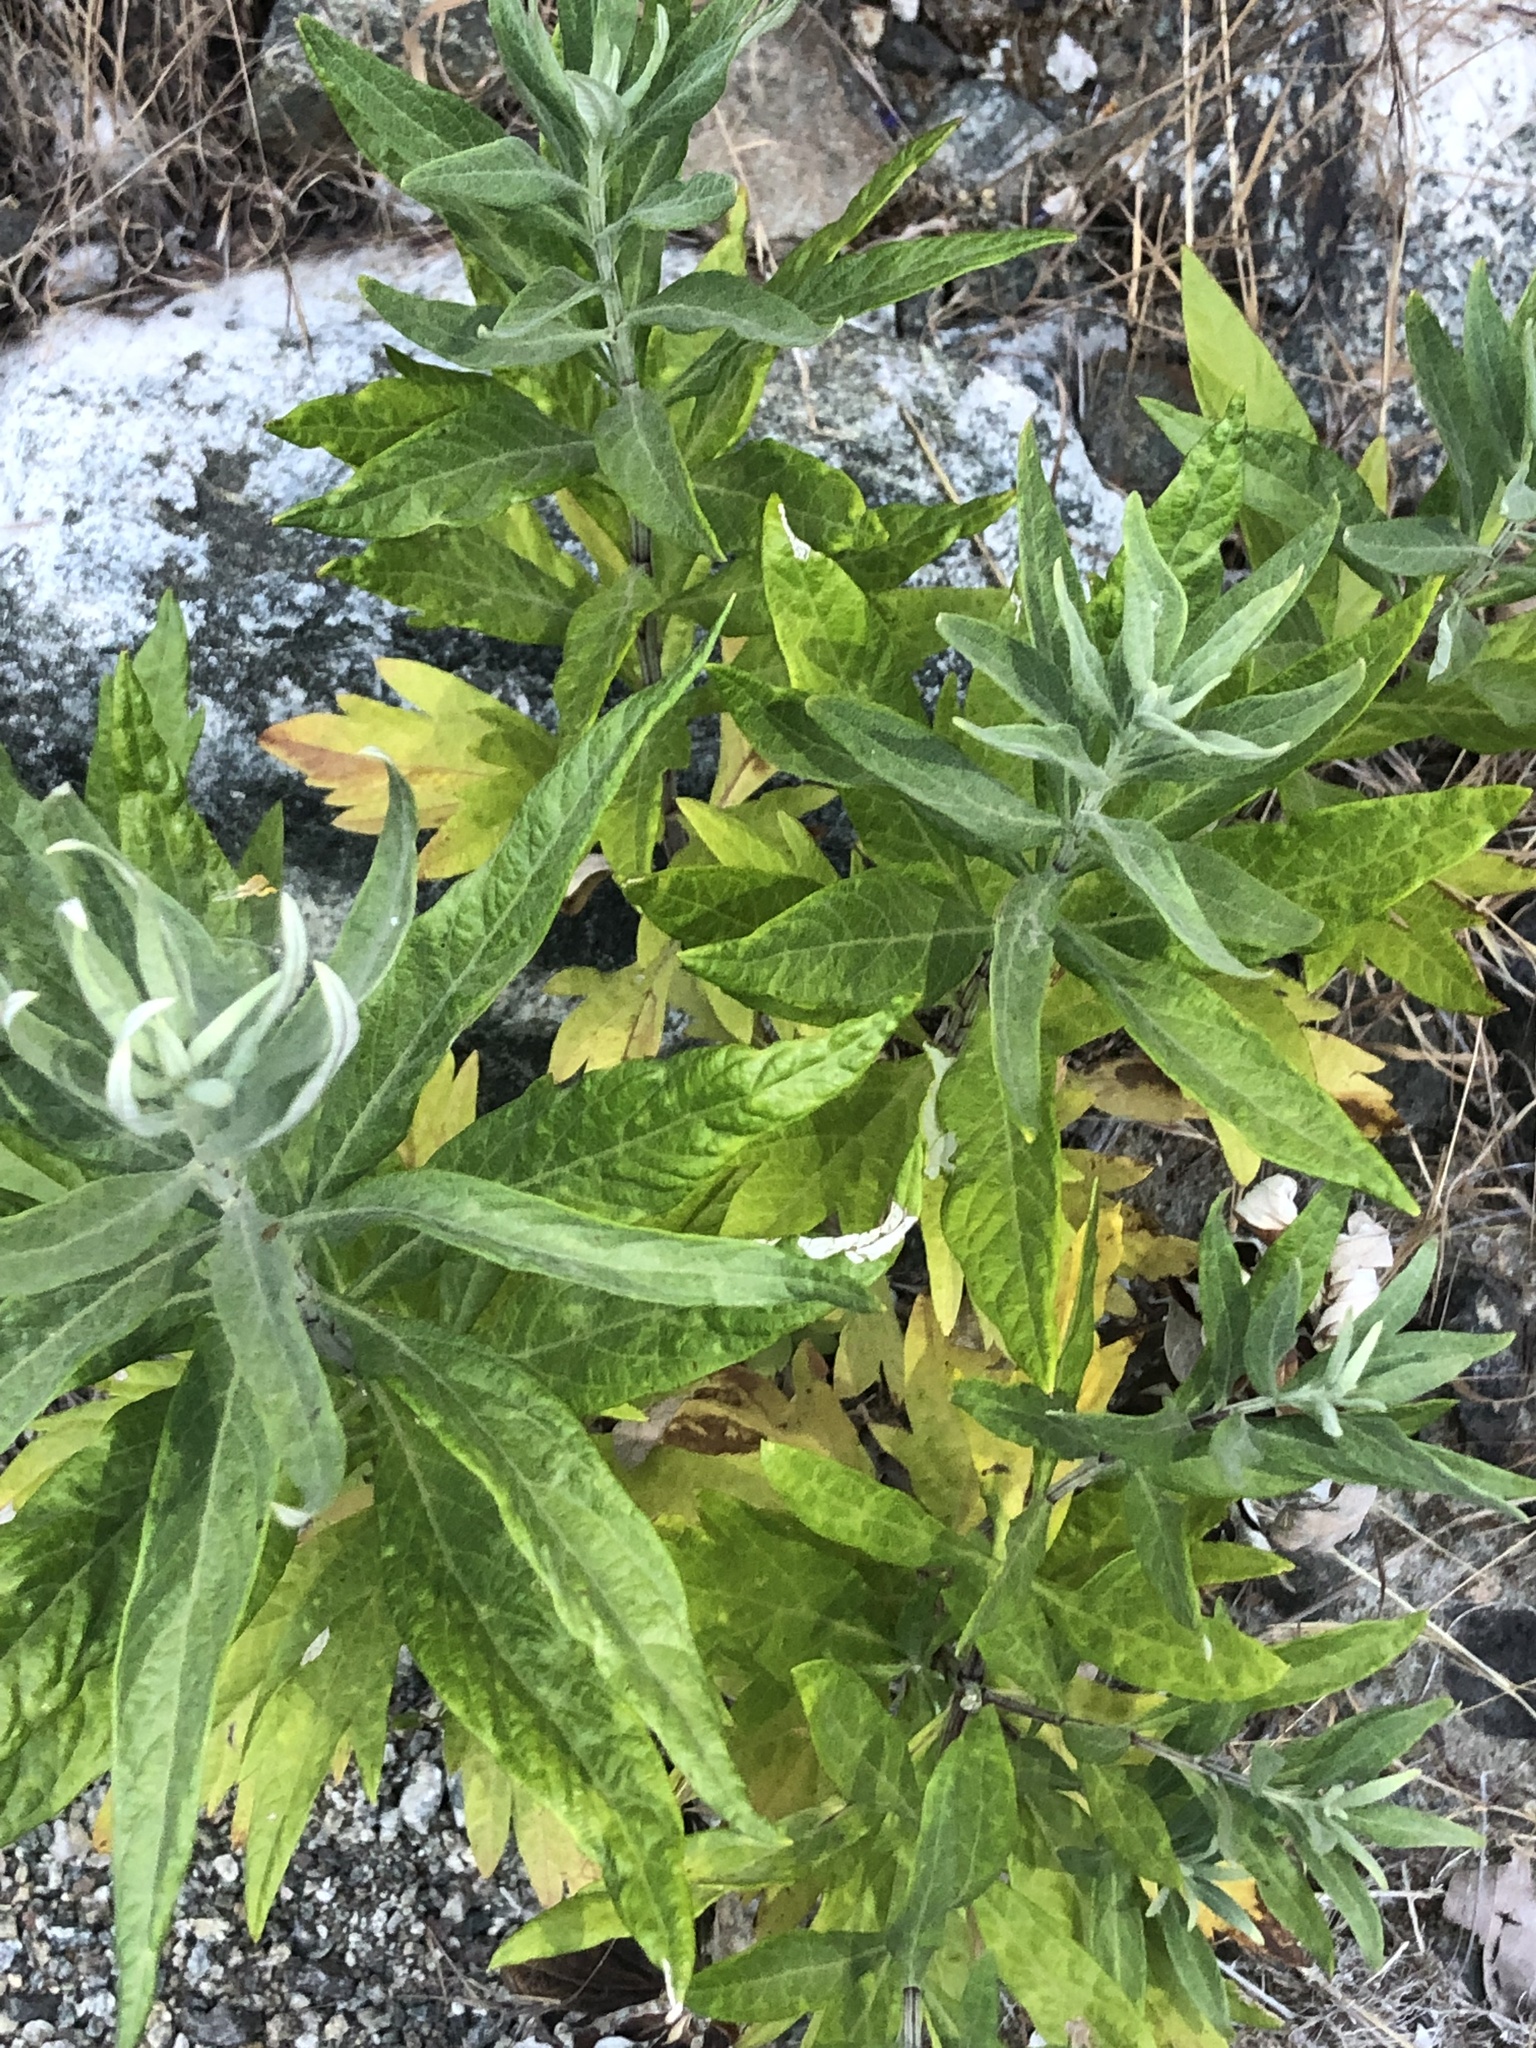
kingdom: Plantae
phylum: Tracheophyta
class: Magnoliopsida
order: Asterales
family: Asteraceae
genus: Artemisia
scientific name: Artemisia douglasiana
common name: Northwest mugwort
